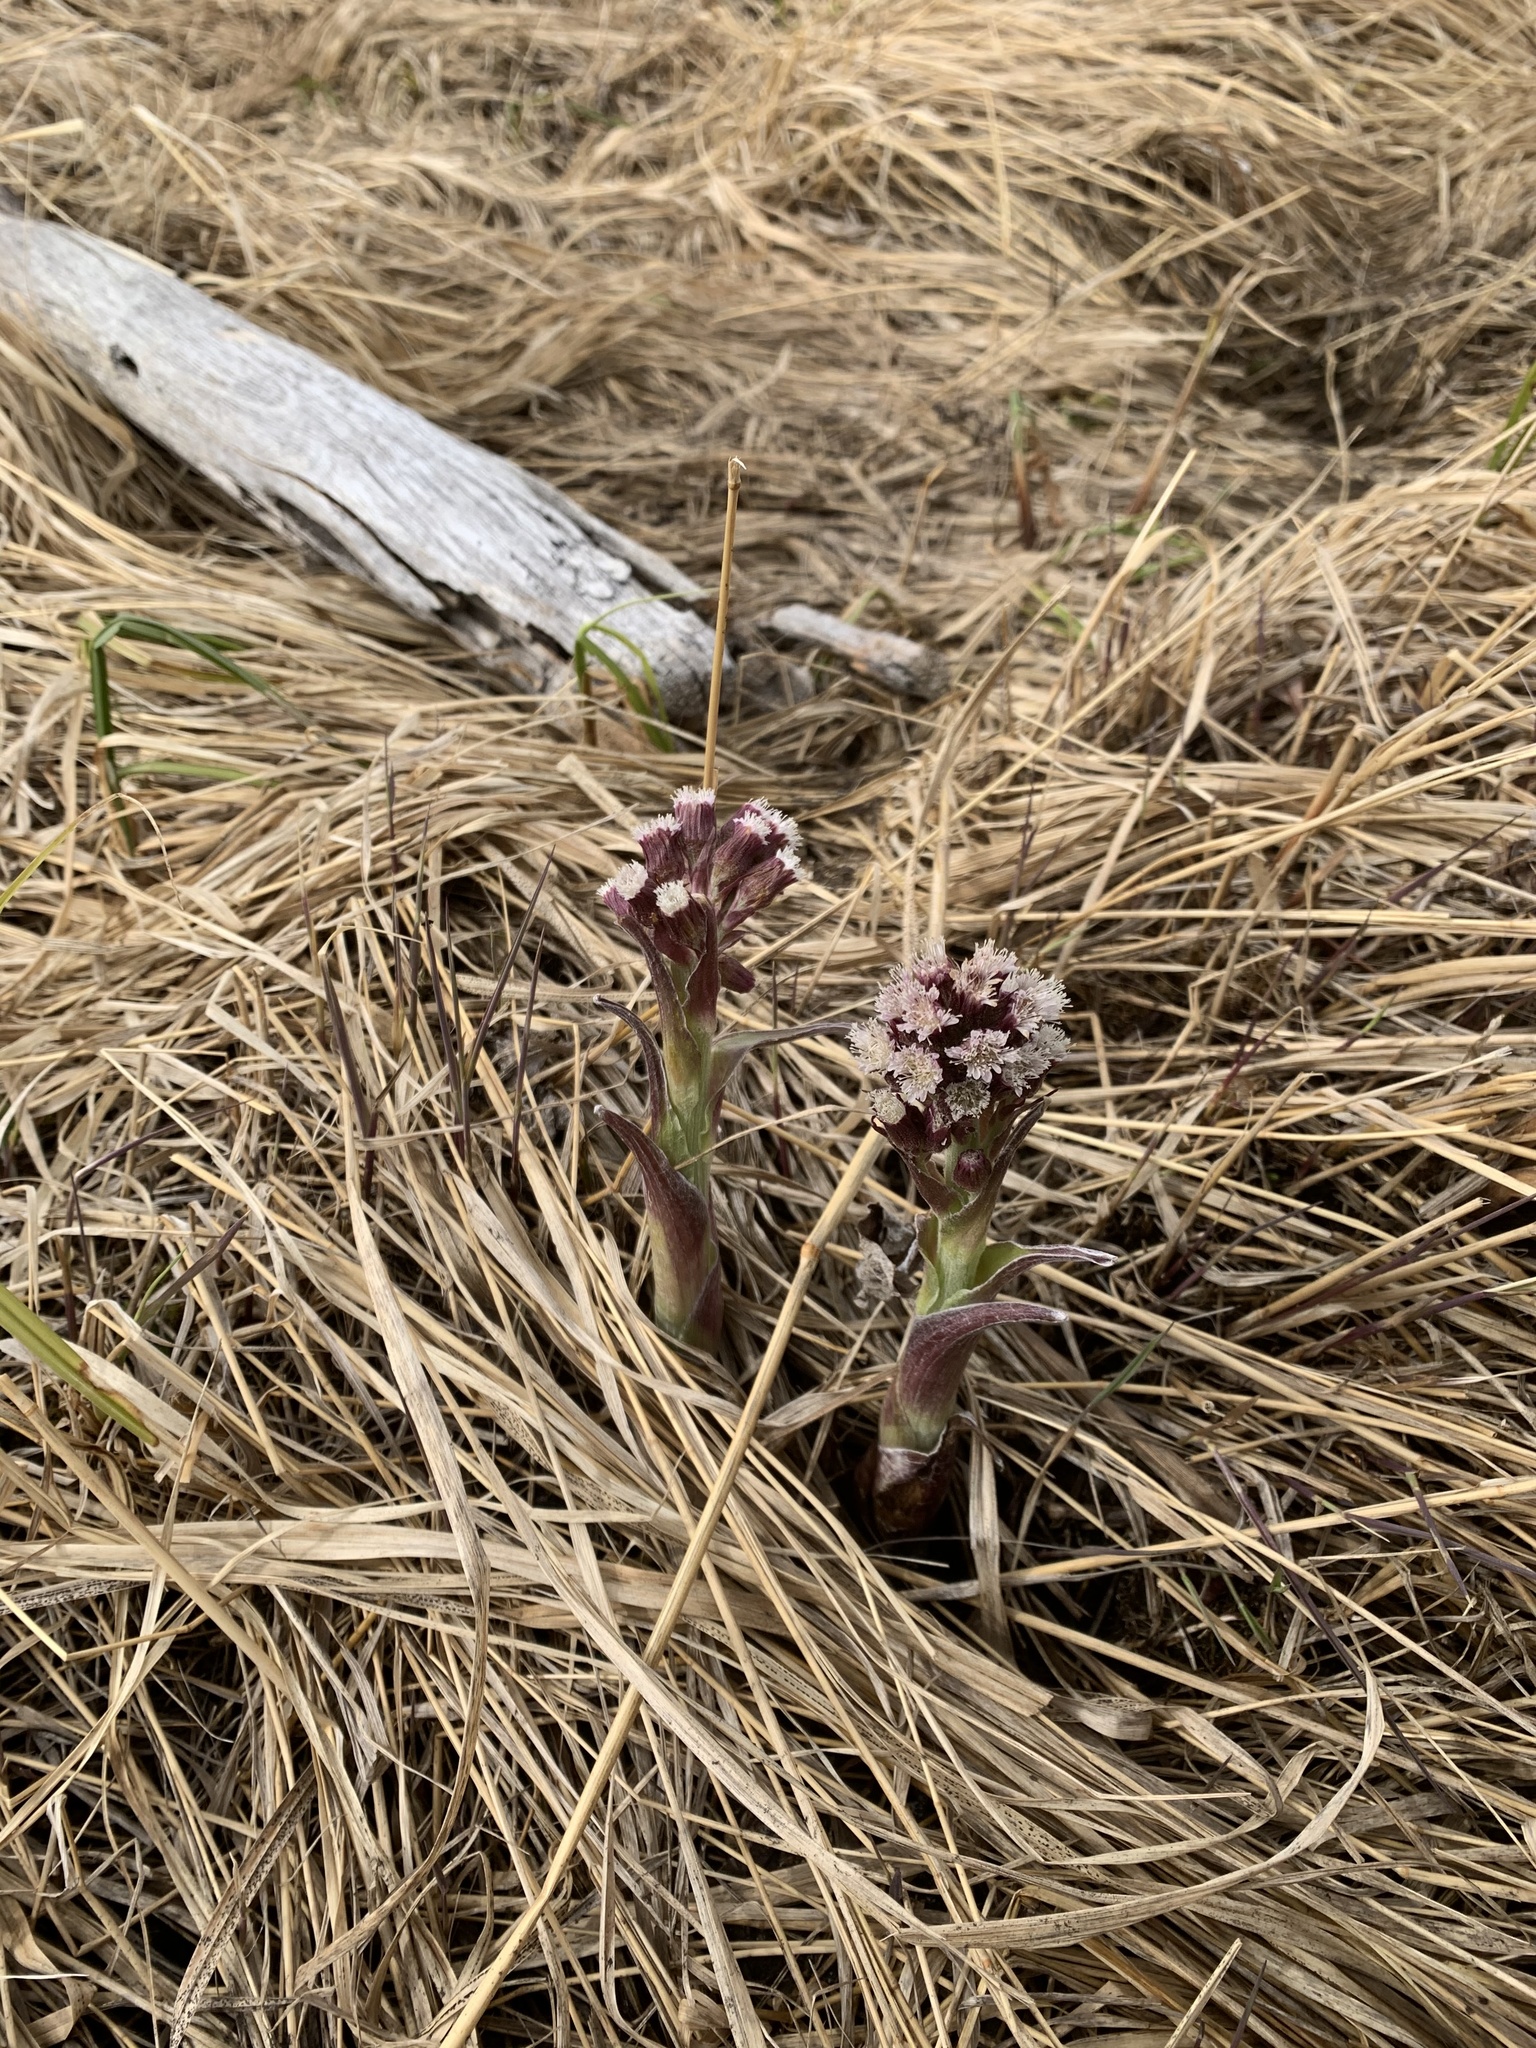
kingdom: Plantae
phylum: Tracheophyta
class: Magnoliopsida
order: Asterales
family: Asteraceae
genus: Petasites
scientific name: Petasites frigidus
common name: Arctic butterbur
